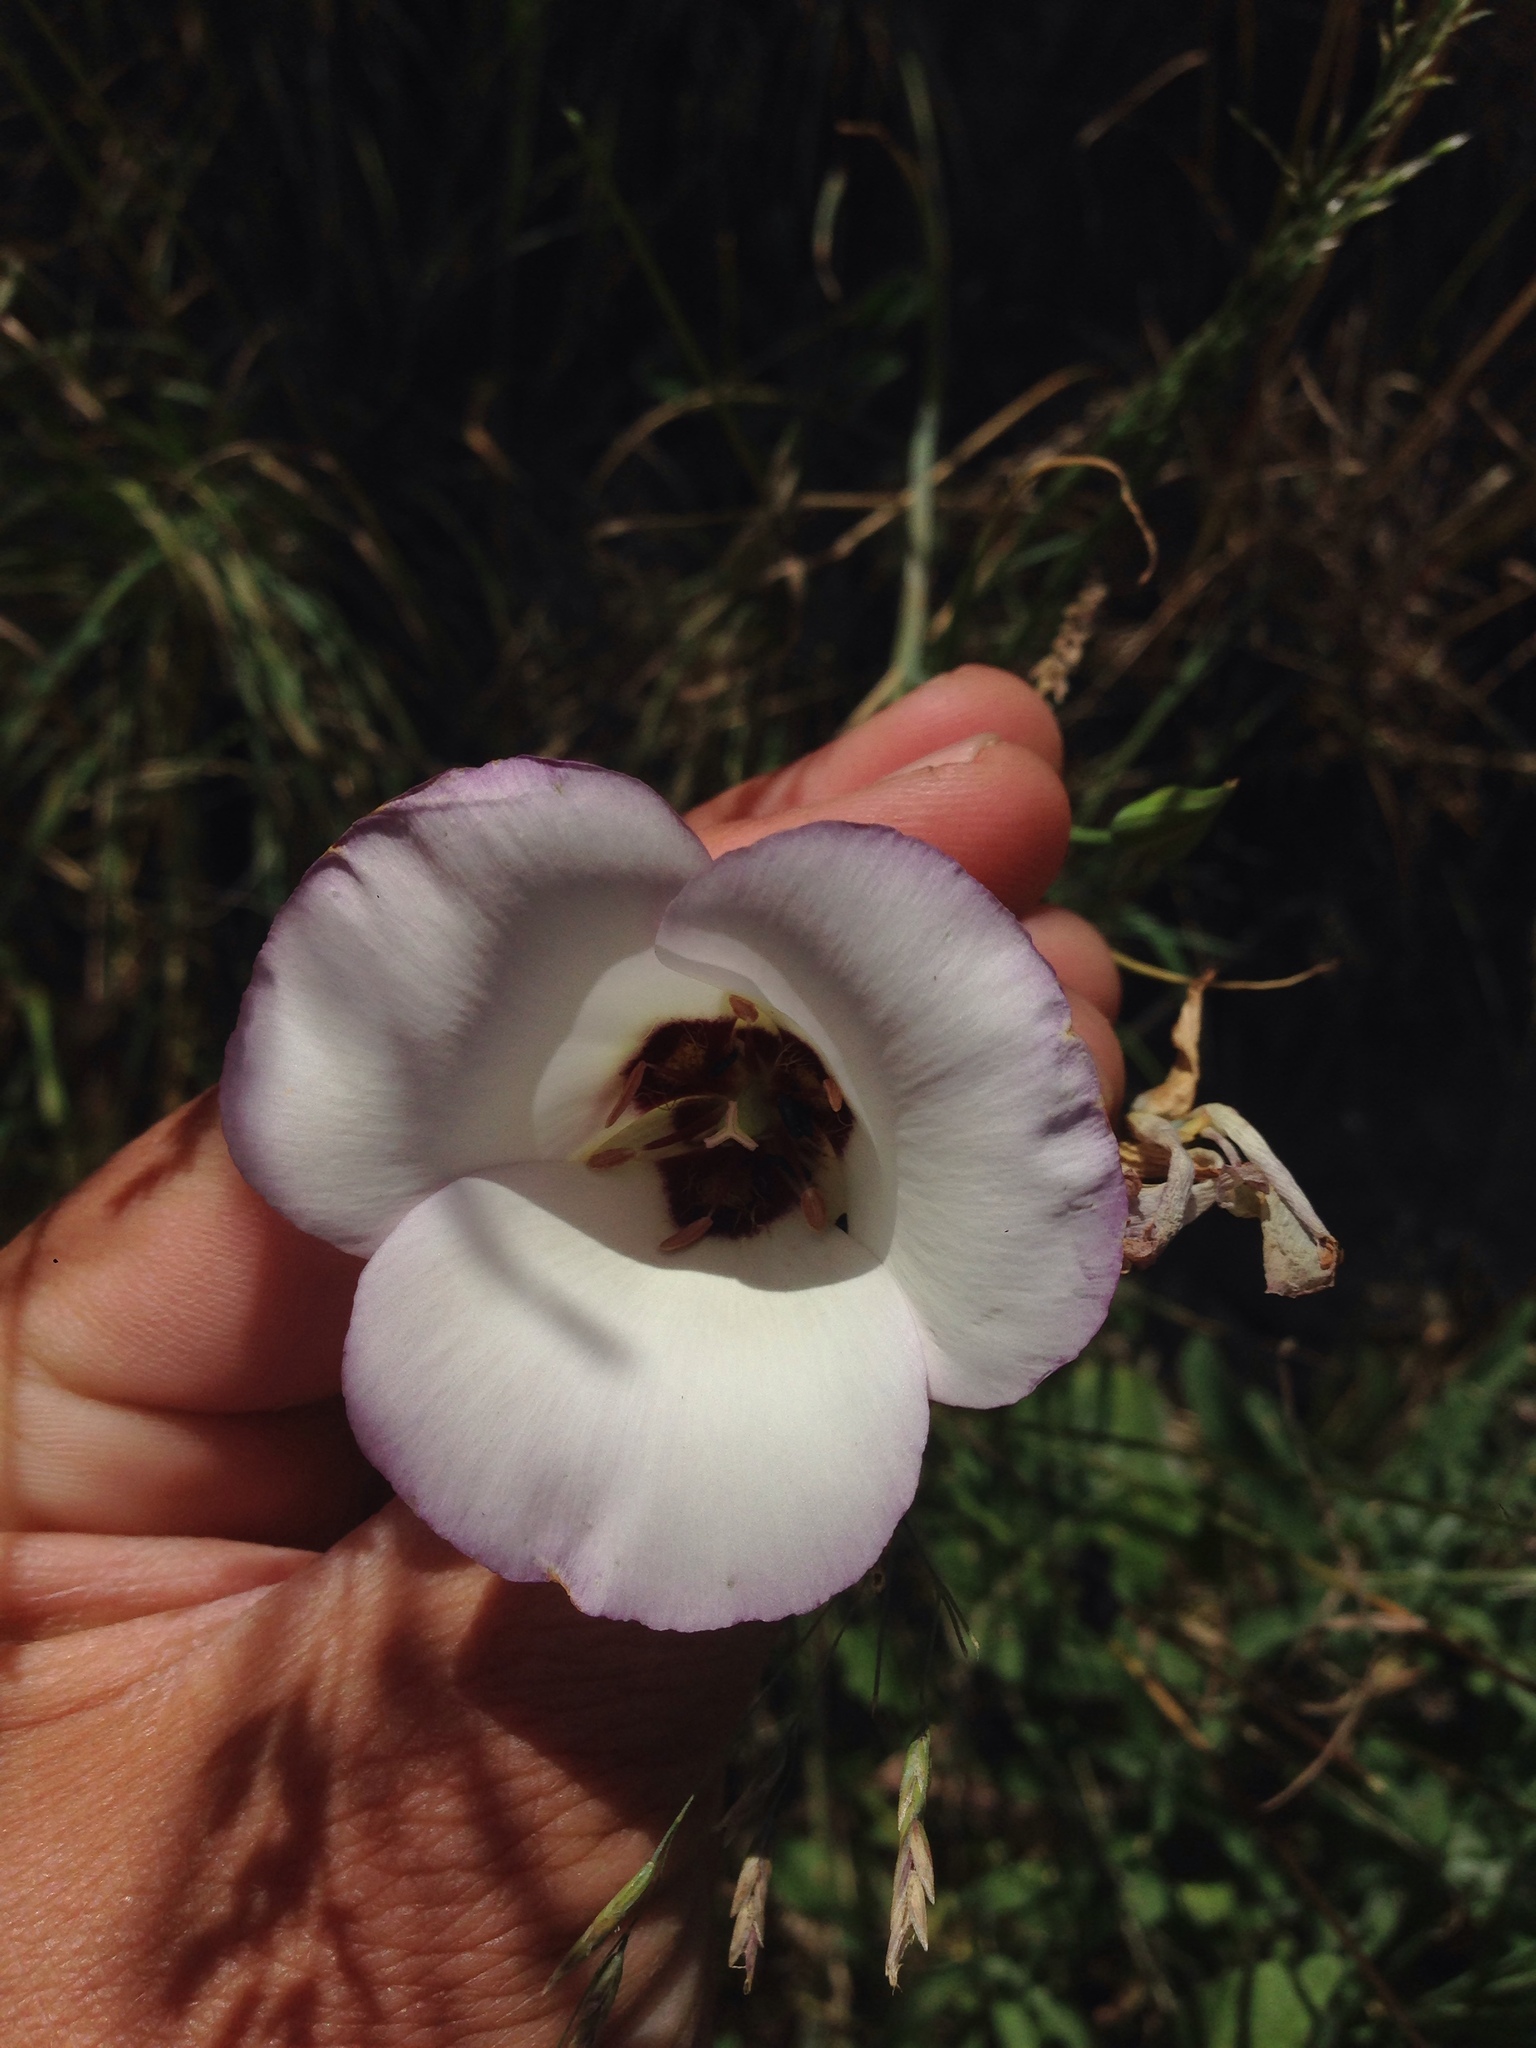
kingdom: Plantae
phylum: Tracheophyta
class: Liliopsida
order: Liliales
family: Liliaceae
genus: Calochortus
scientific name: Calochortus catalinae
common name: Catalina mariposa-lily
